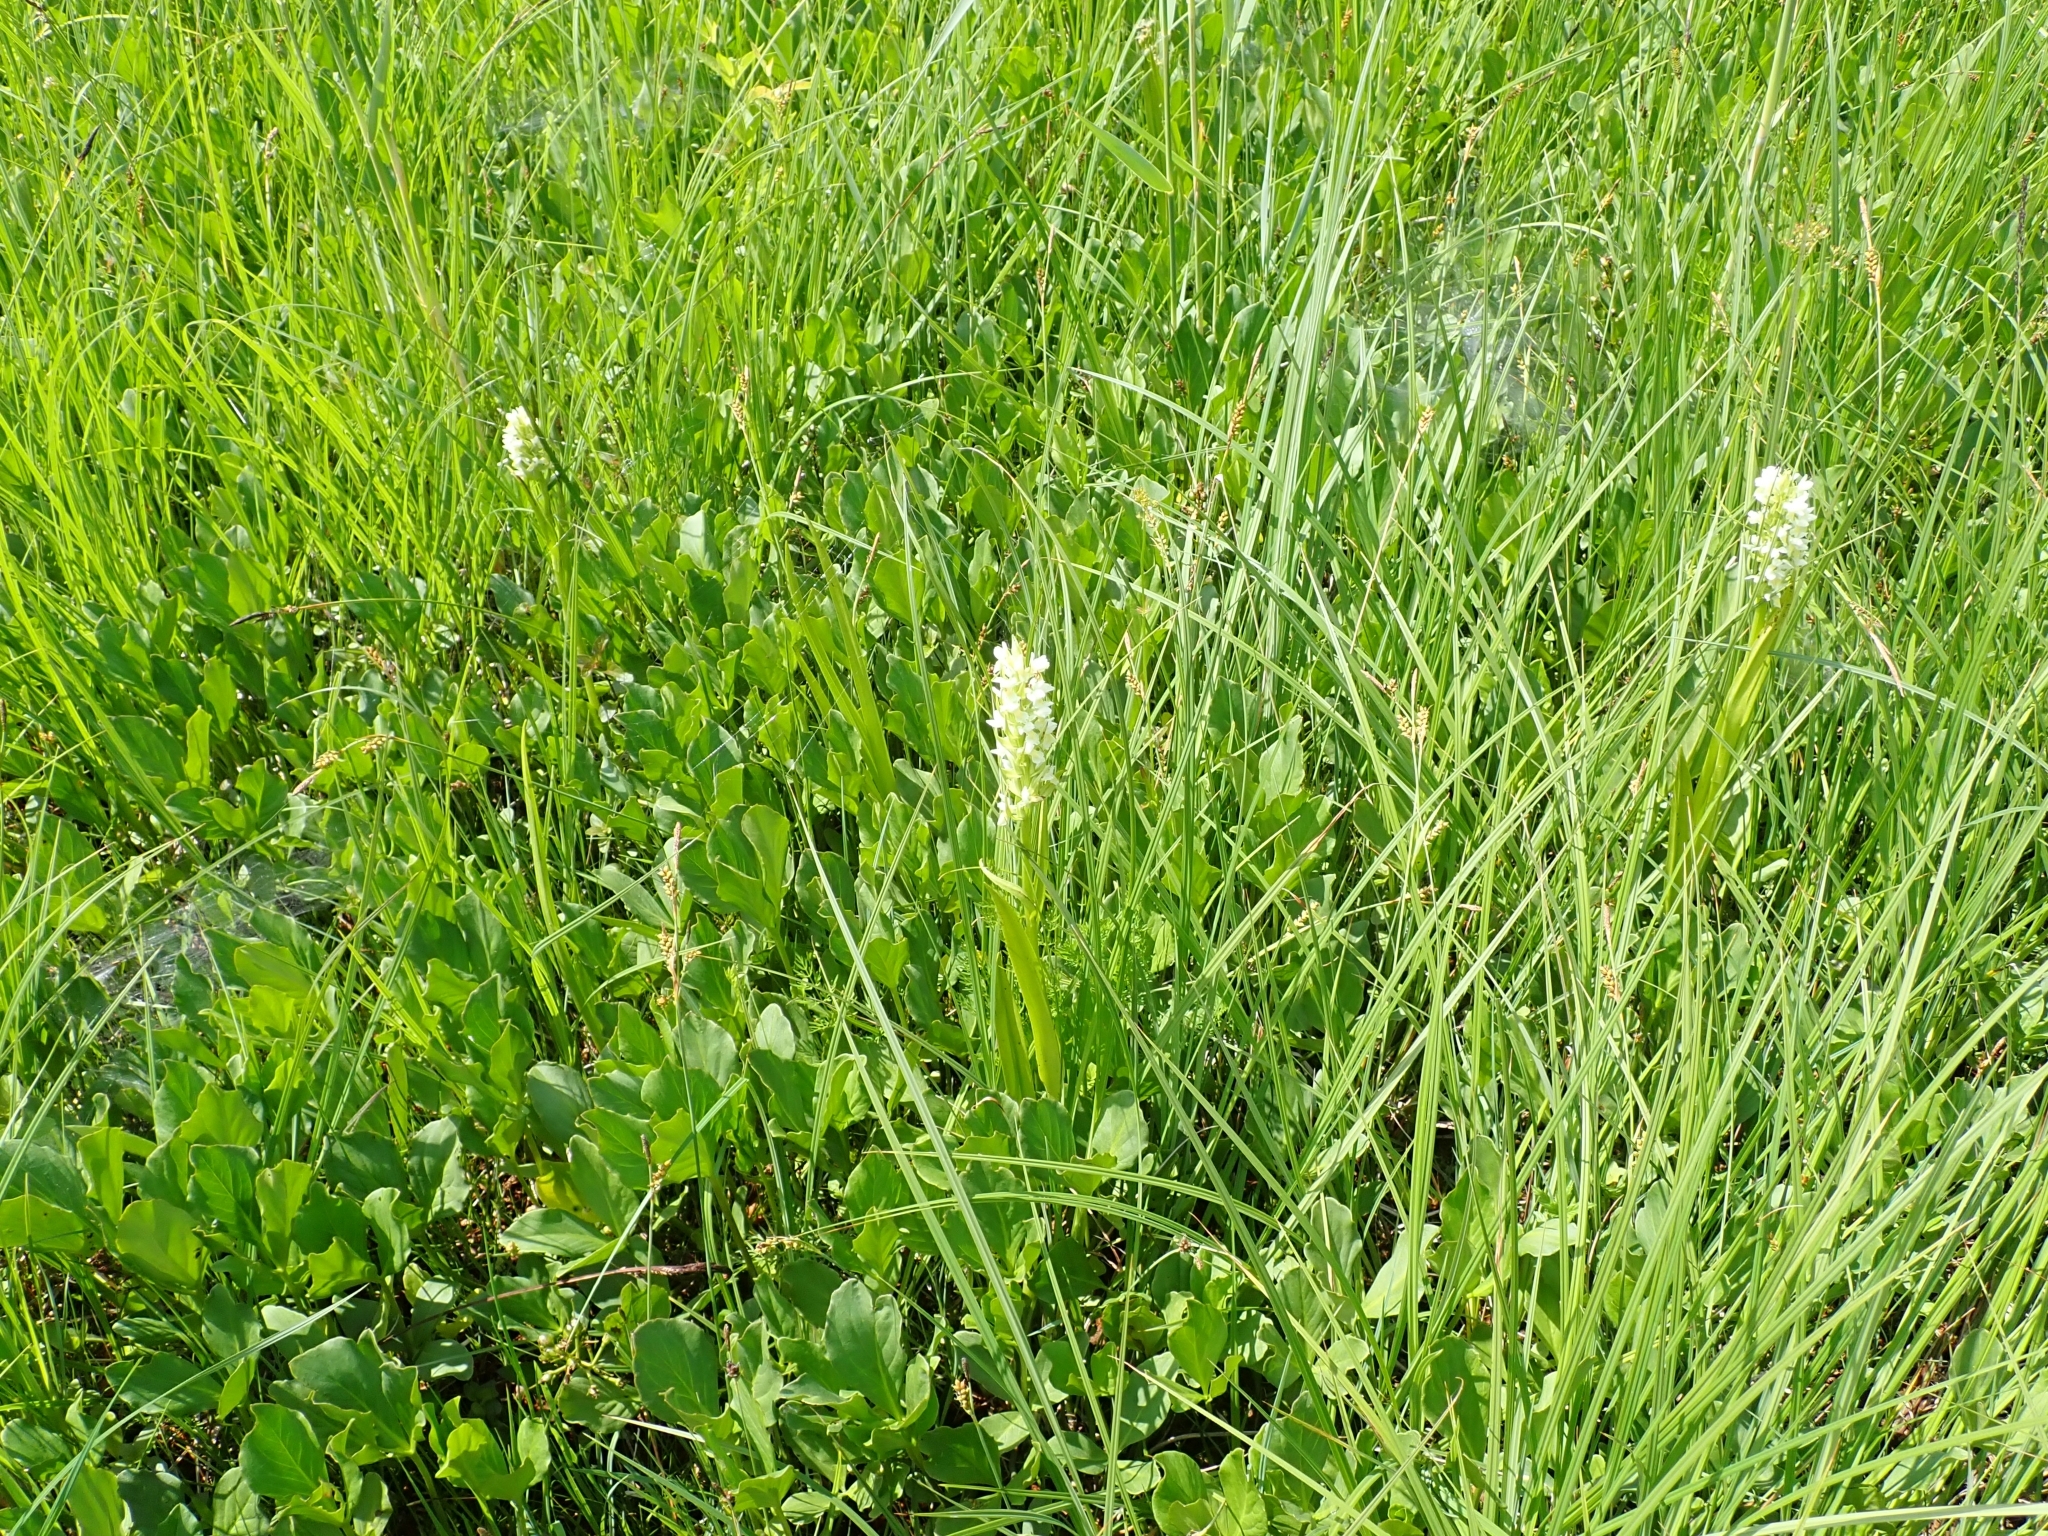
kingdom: Plantae
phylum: Tracheophyta
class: Liliopsida
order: Asparagales
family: Orchidaceae
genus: Dactylorhiza
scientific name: Dactylorhiza incarnata
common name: Early marsh-orchid
